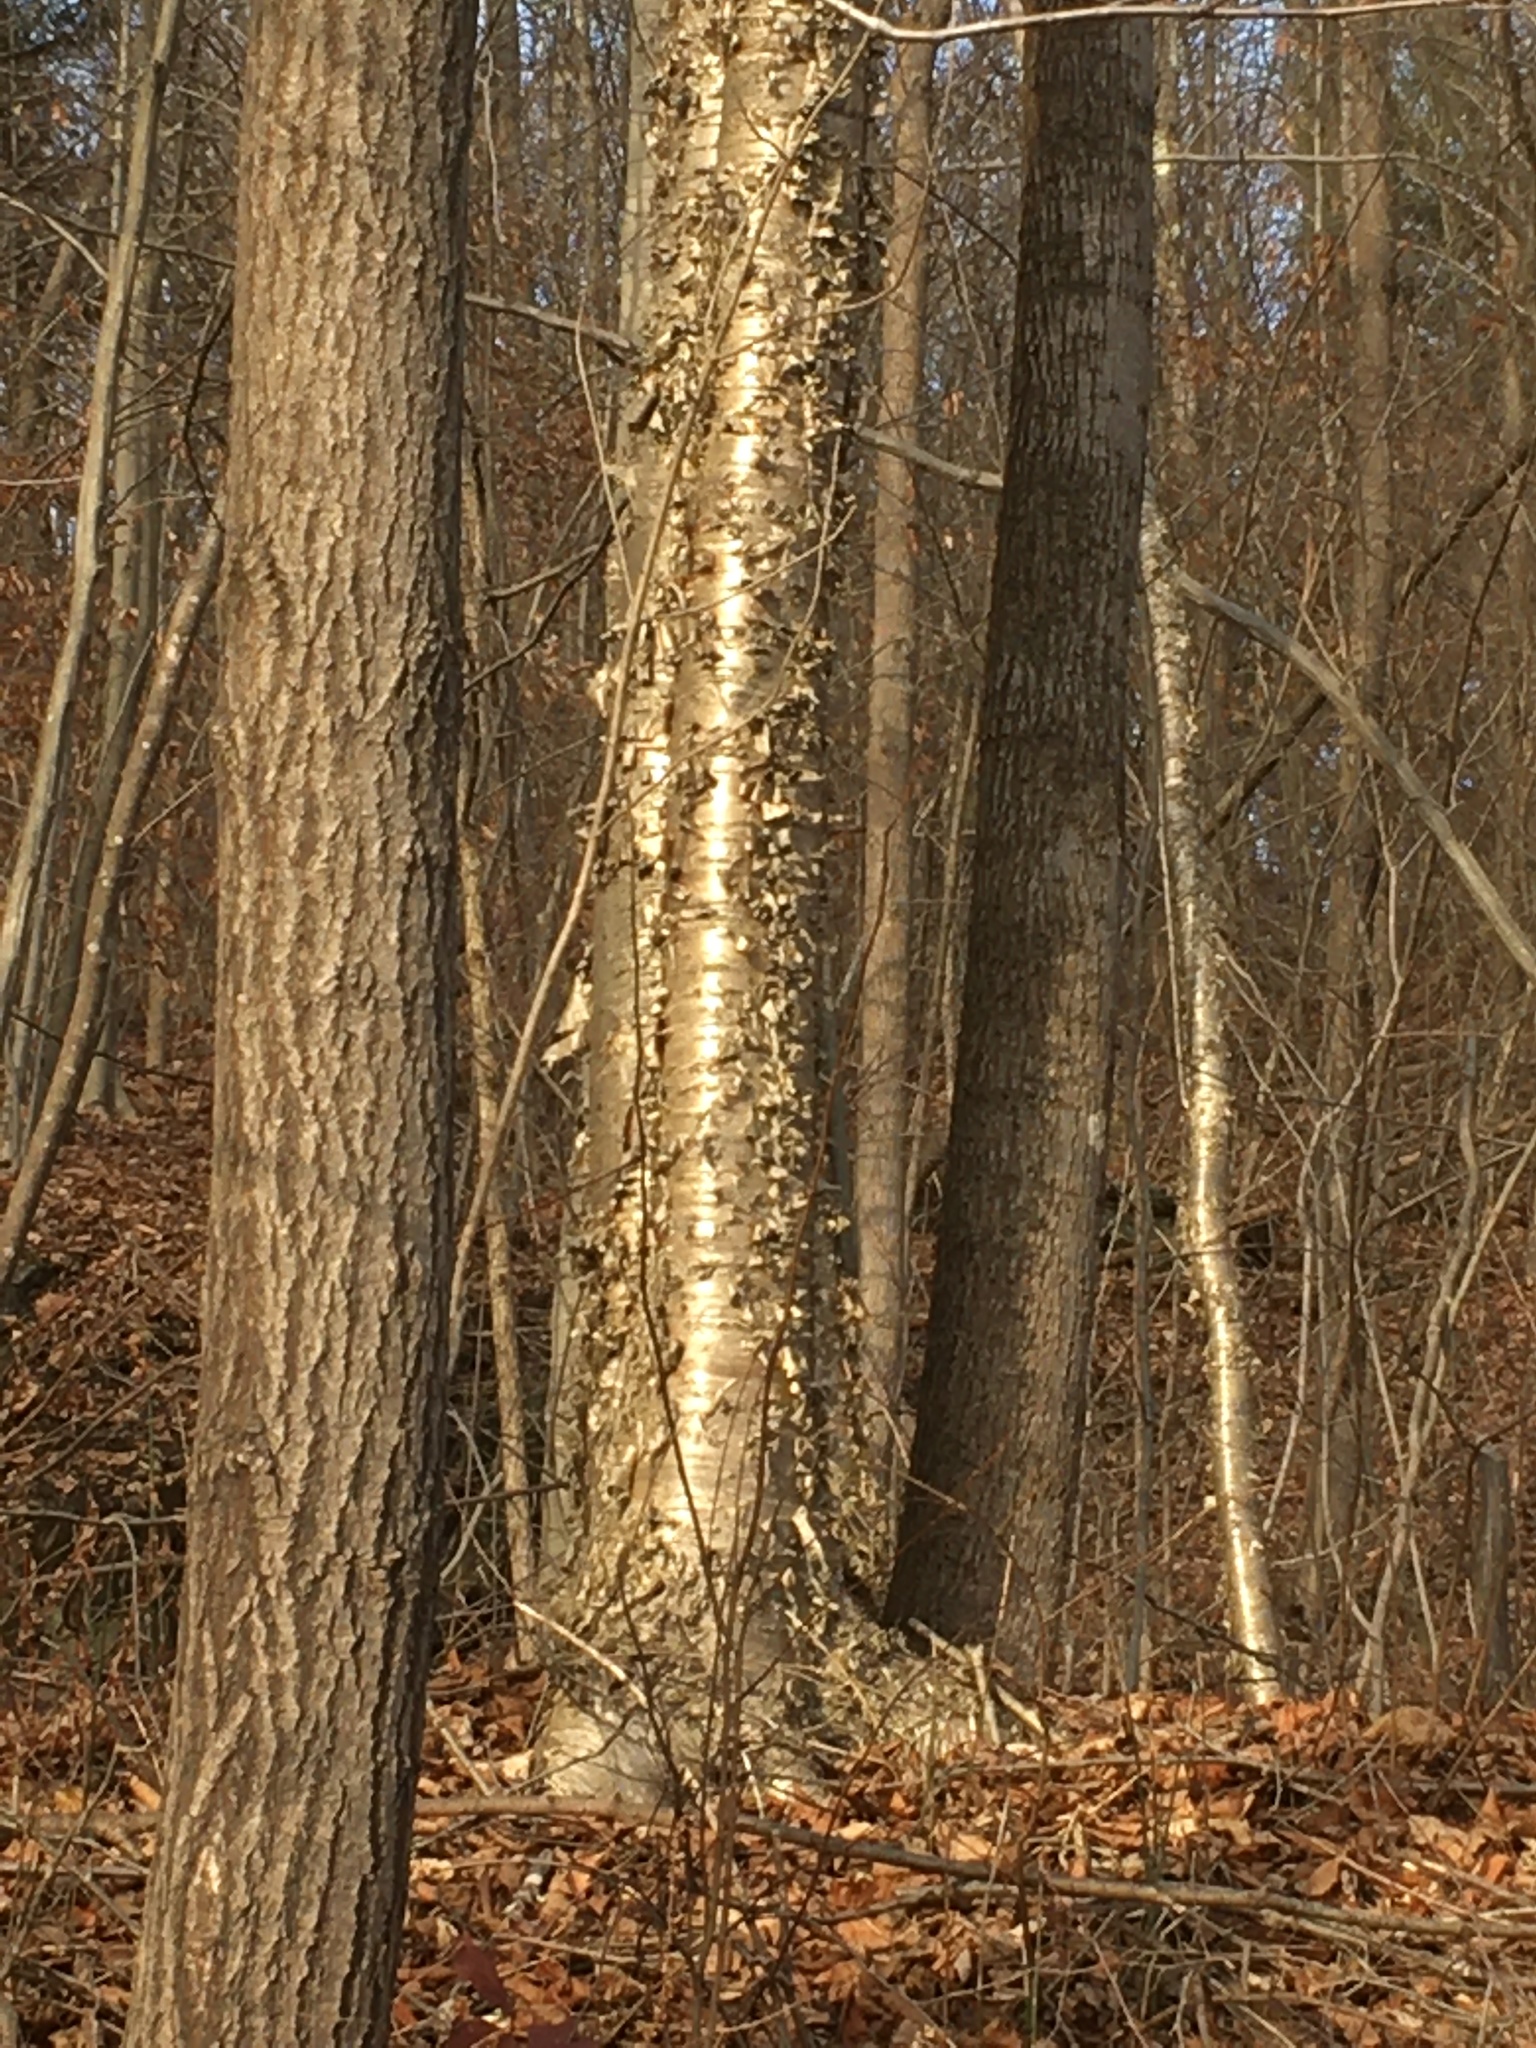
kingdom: Plantae
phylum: Tracheophyta
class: Magnoliopsida
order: Fagales
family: Betulaceae
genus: Betula
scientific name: Betula alleghaniensis
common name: Yellow birch
